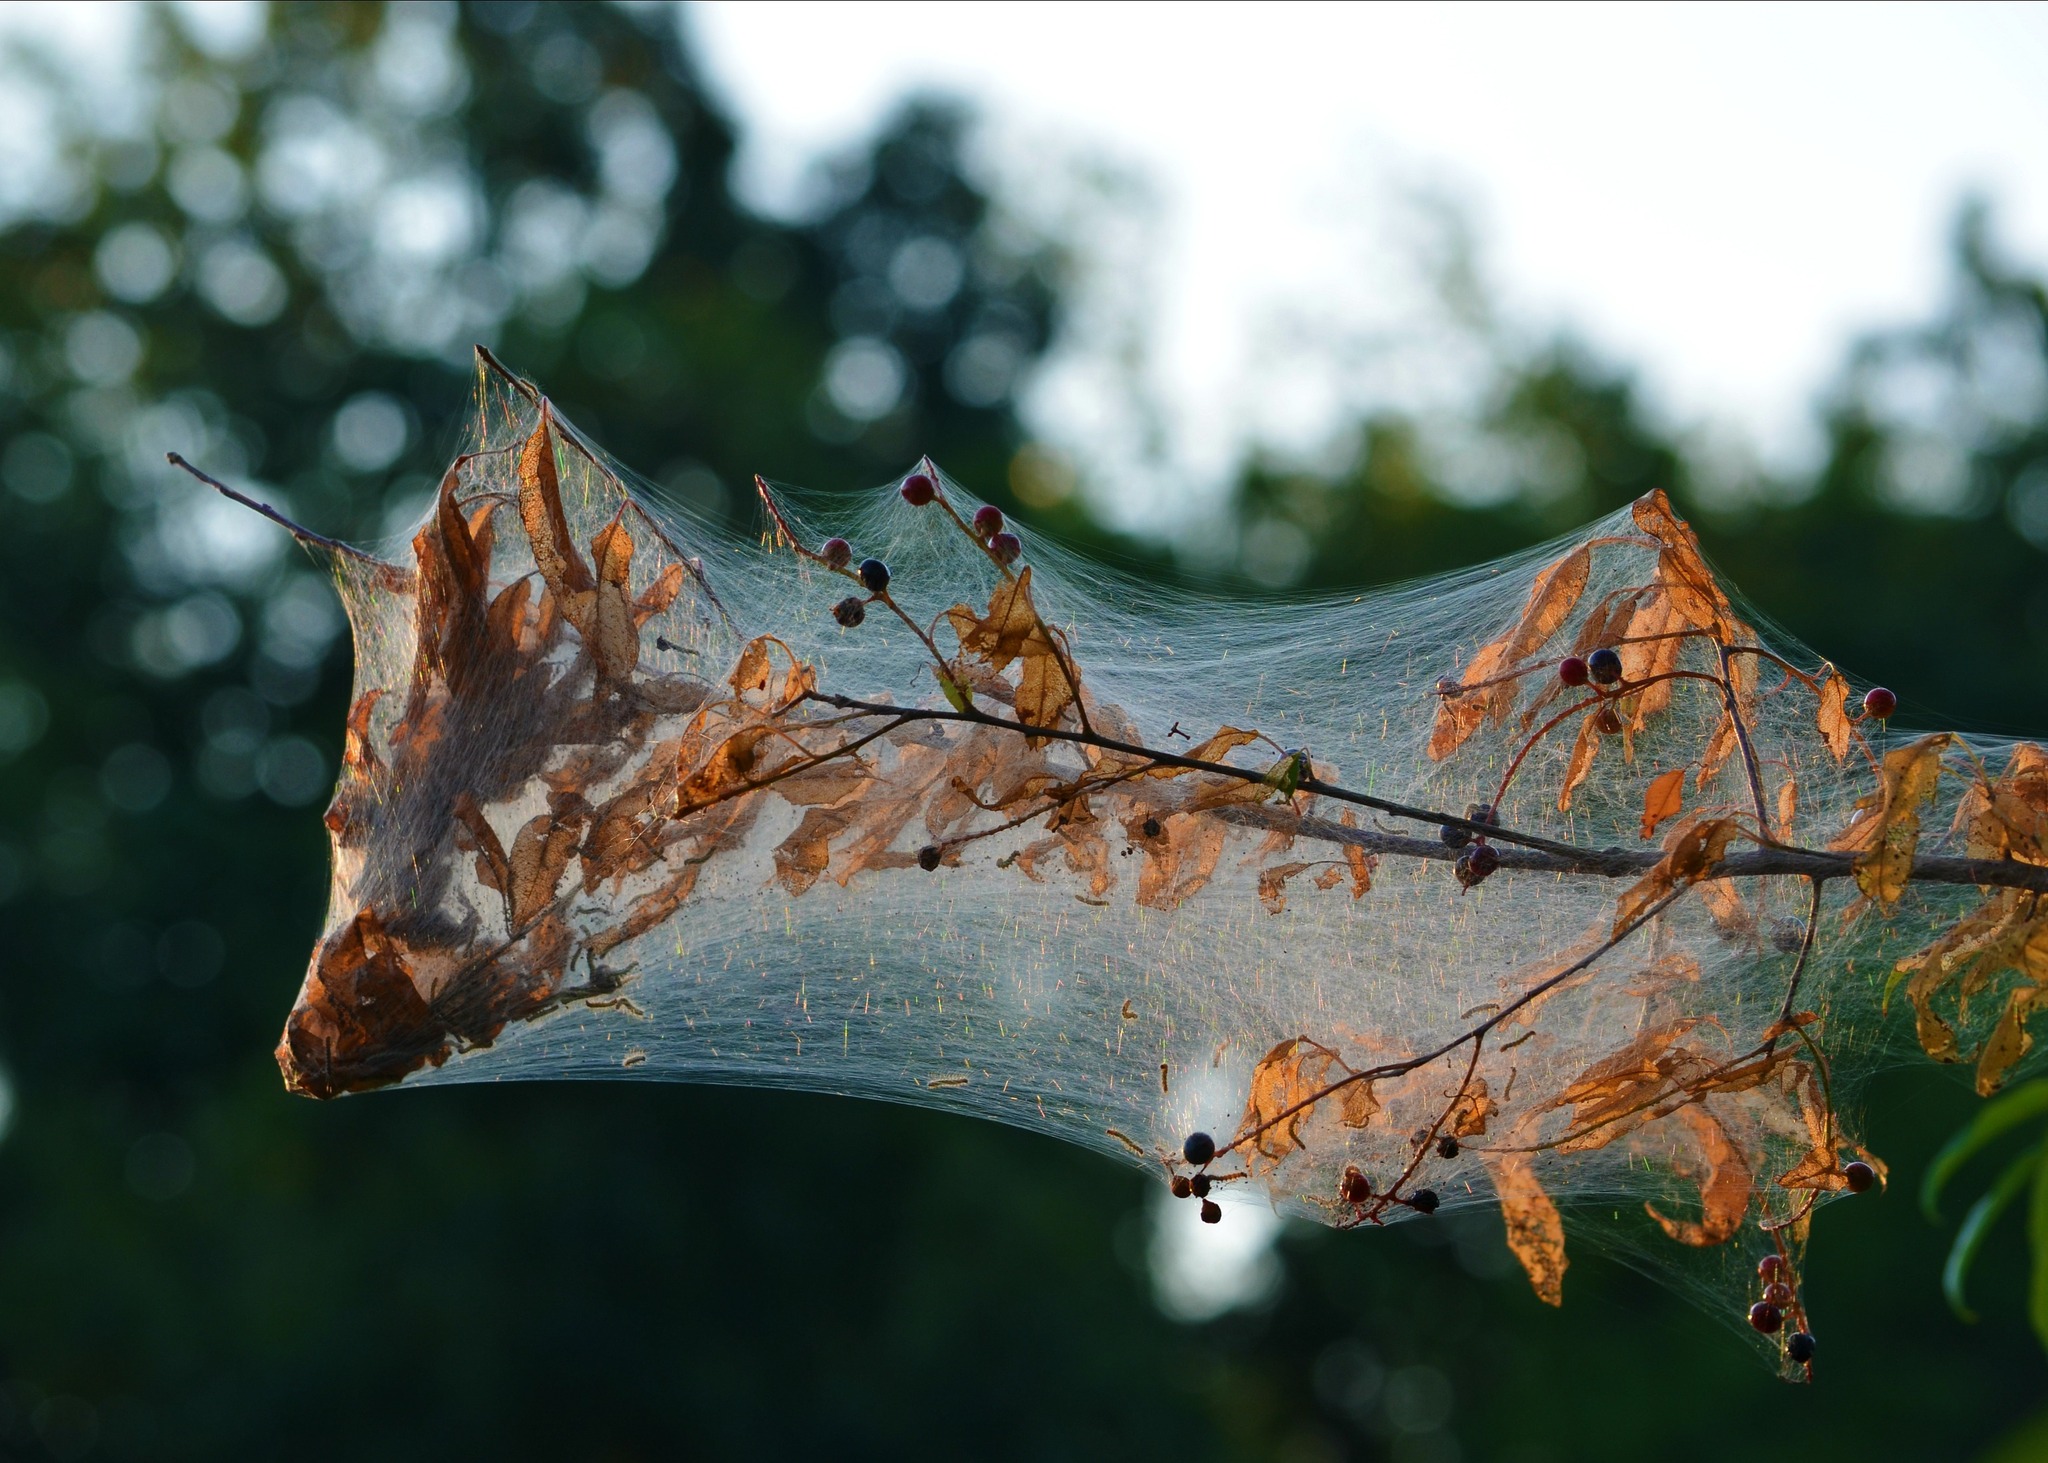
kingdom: Animalia
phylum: Arthropoda
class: Insecta
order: Lepidoptera
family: Erebidae
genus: Hyphantria
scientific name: Hyphantria cunea
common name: American white moth
